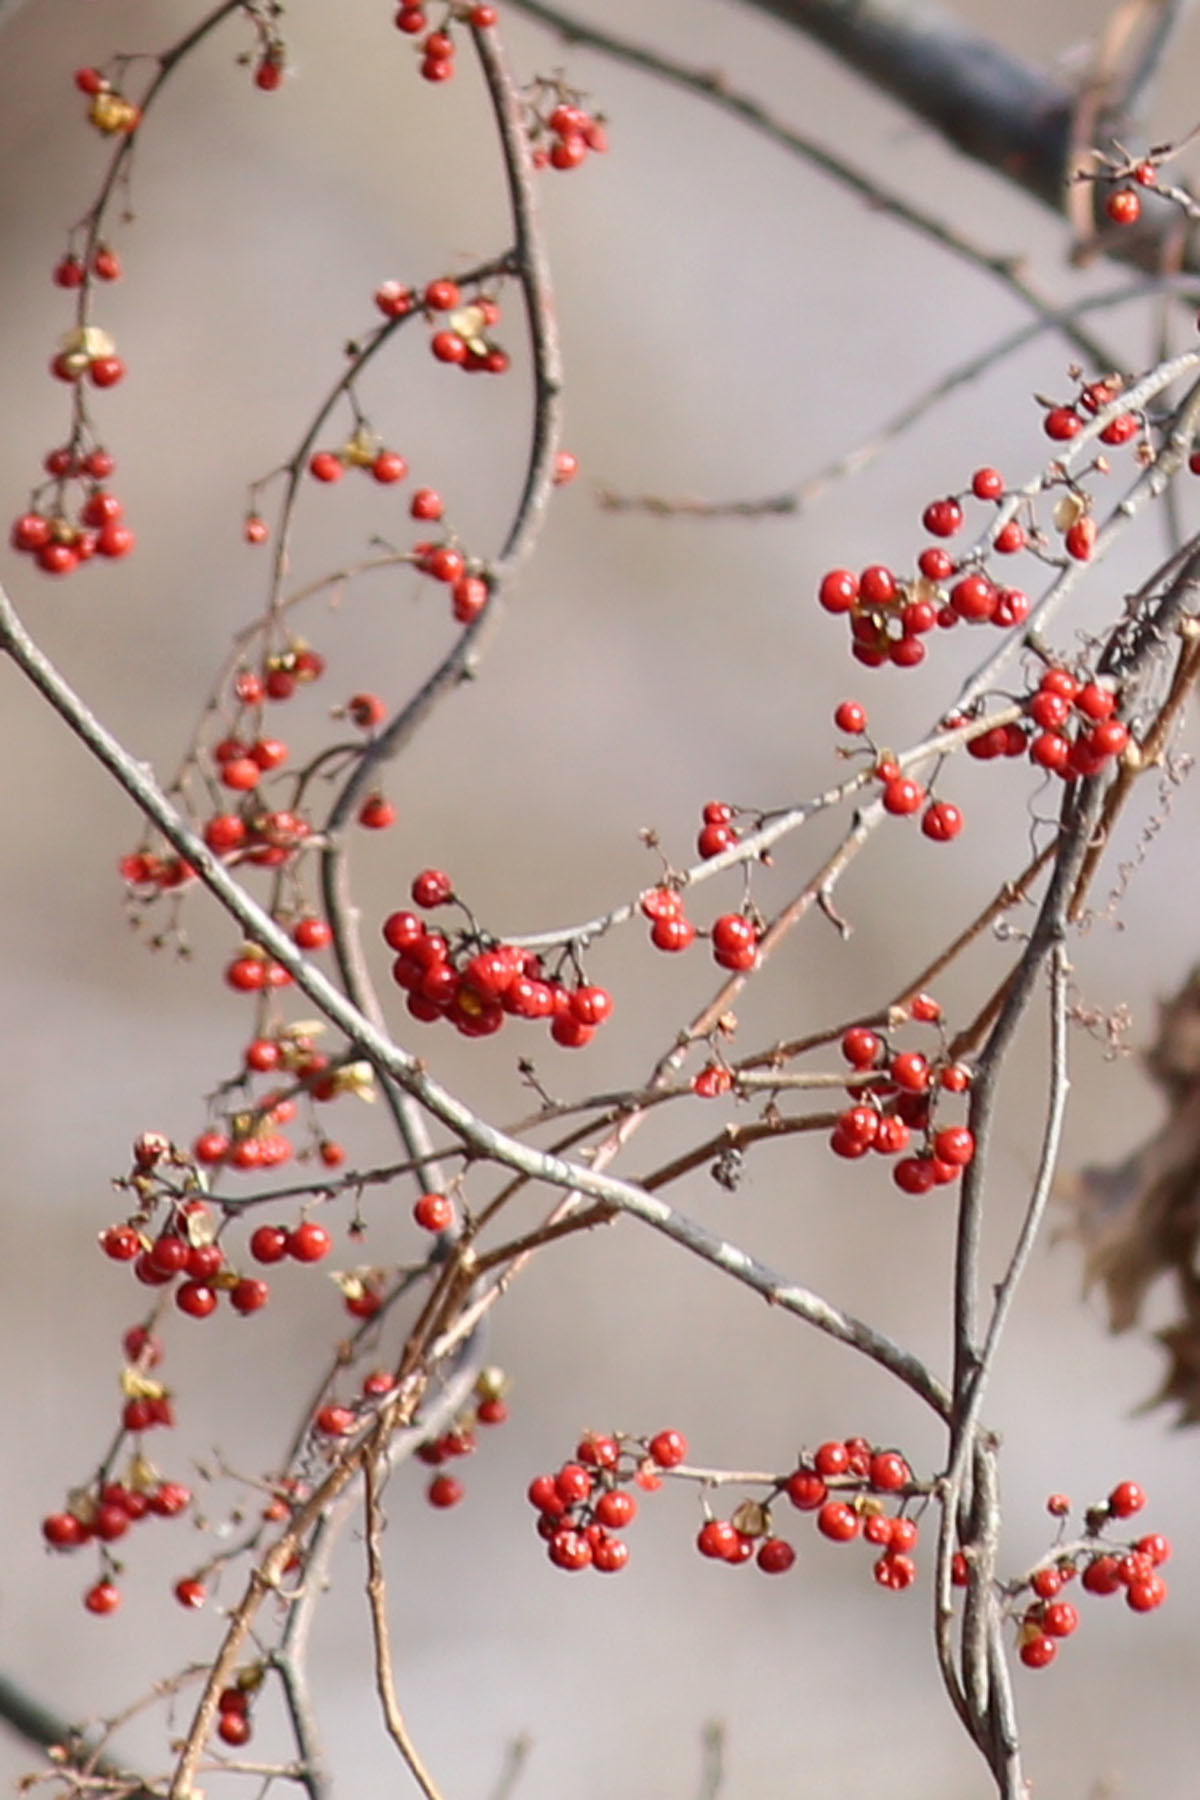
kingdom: Plantae
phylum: Tracheophyta
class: Magnoliopsida
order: Celastrales
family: Celastraceae
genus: Celastrus
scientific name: Celastrus orbiculatus
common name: Oriental bittersweet
